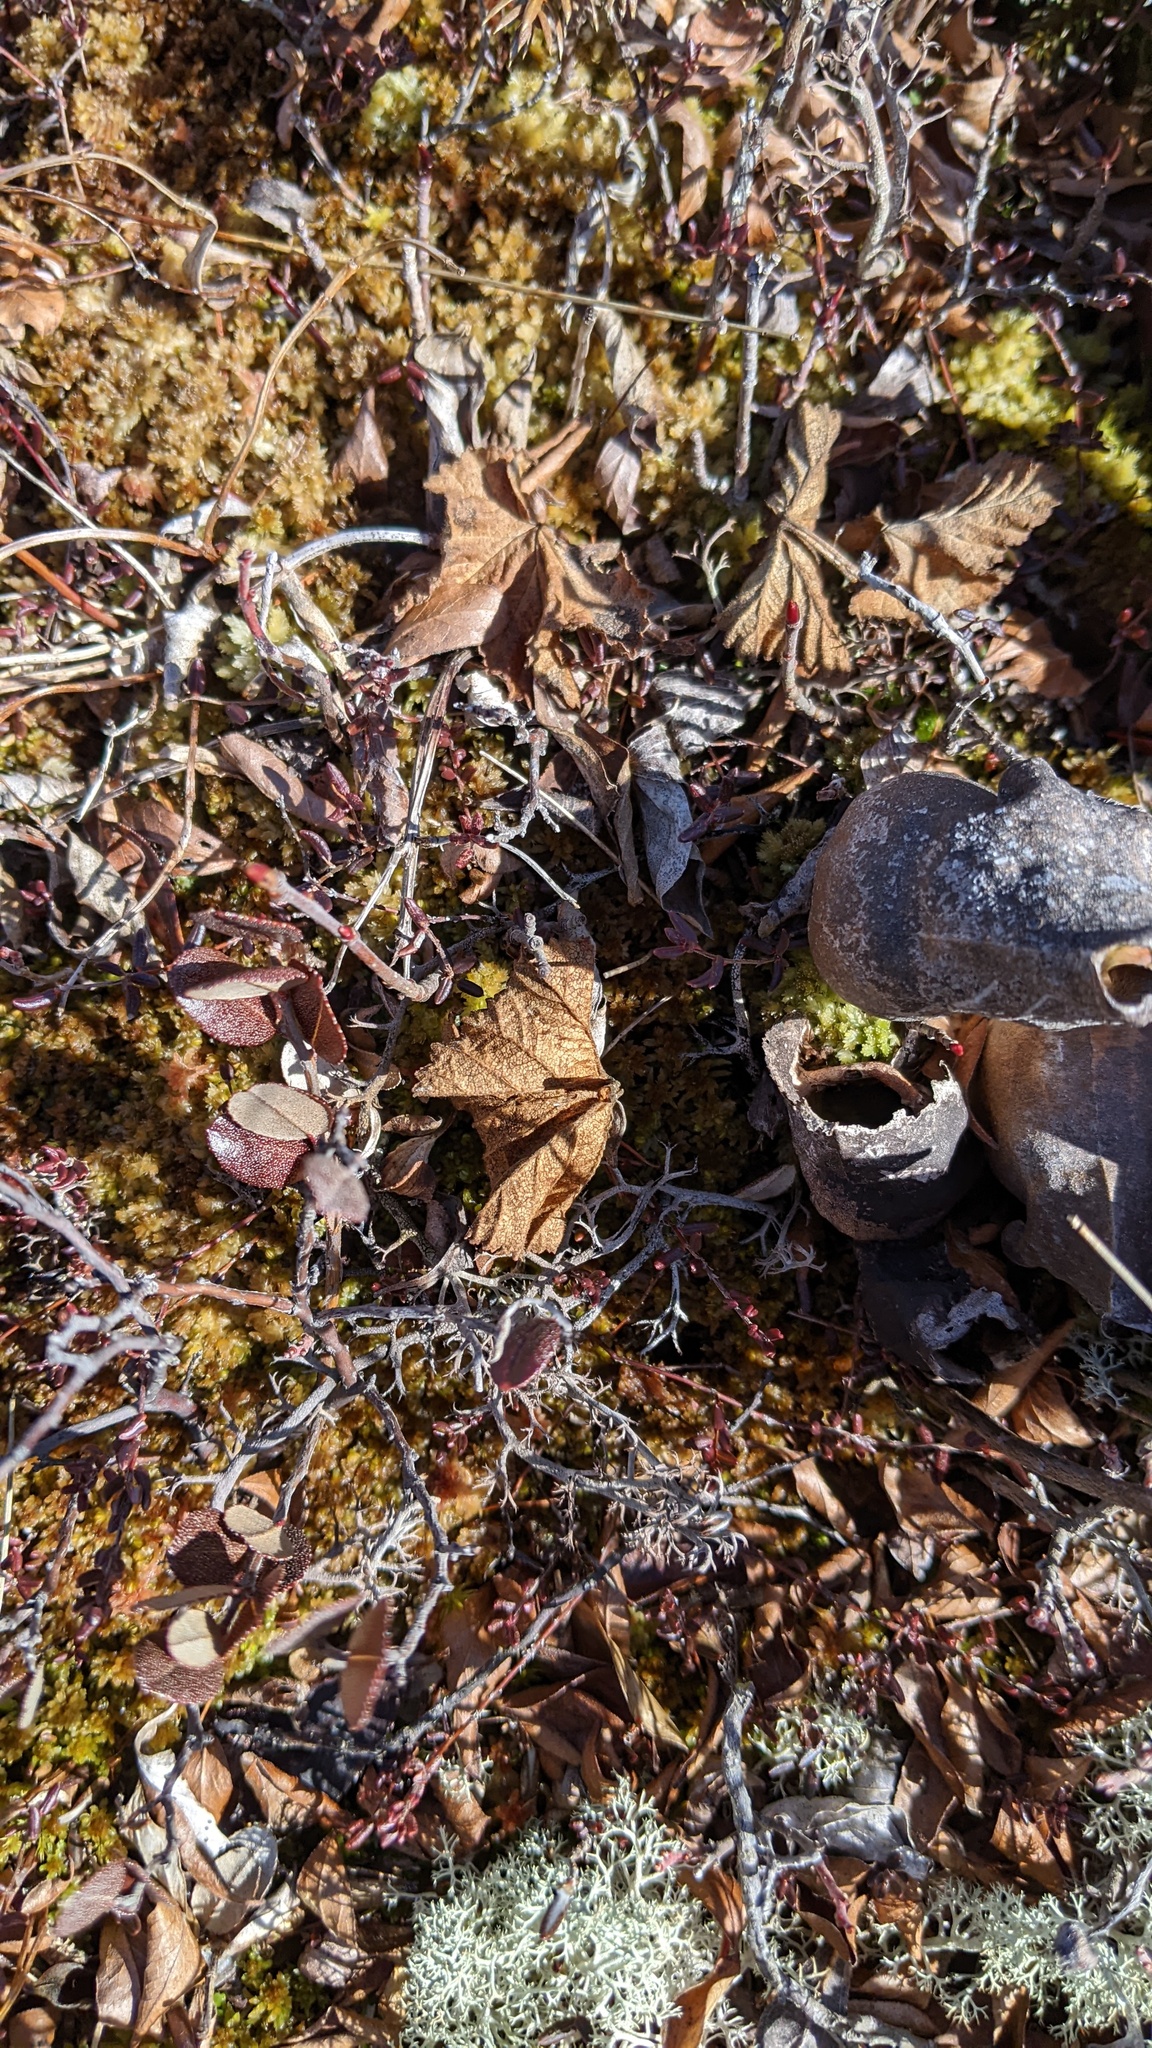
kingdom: Plantae
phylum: Tracheophyta
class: Magnoliopsida
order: Rosales
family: Rosaceae
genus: Rubus
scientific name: Rubus chamaemorus
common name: Cloudberry
